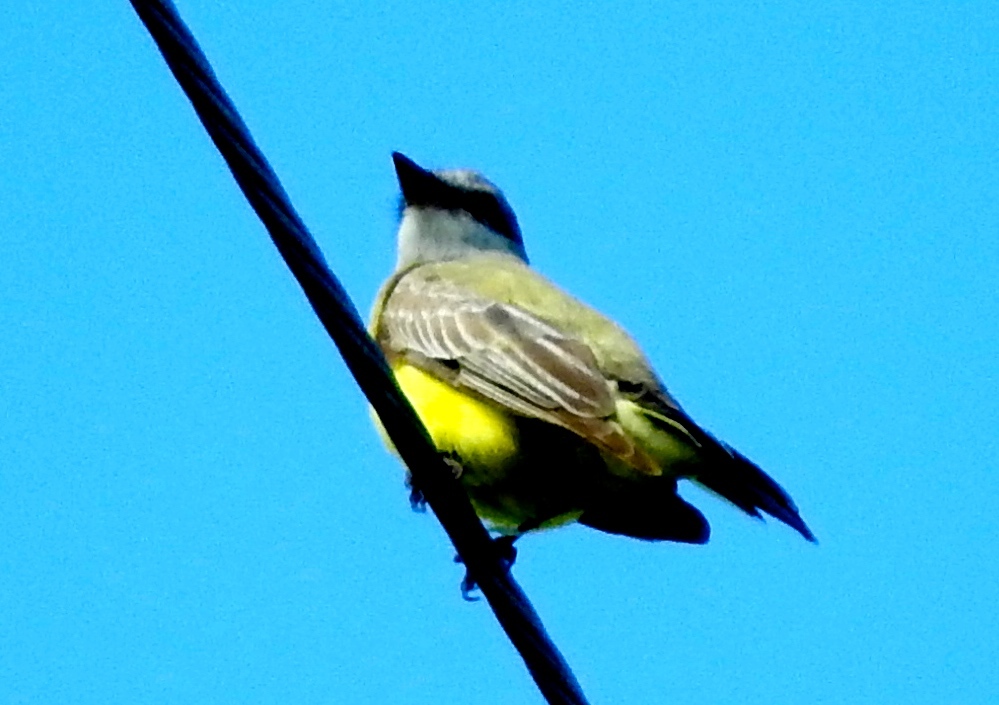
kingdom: Animalia
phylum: Chordata
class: Aves
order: Passeriformes
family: Tyrannidae
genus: Tyrannus
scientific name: Tyrannus melancholicus
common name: Tropical kingbird
